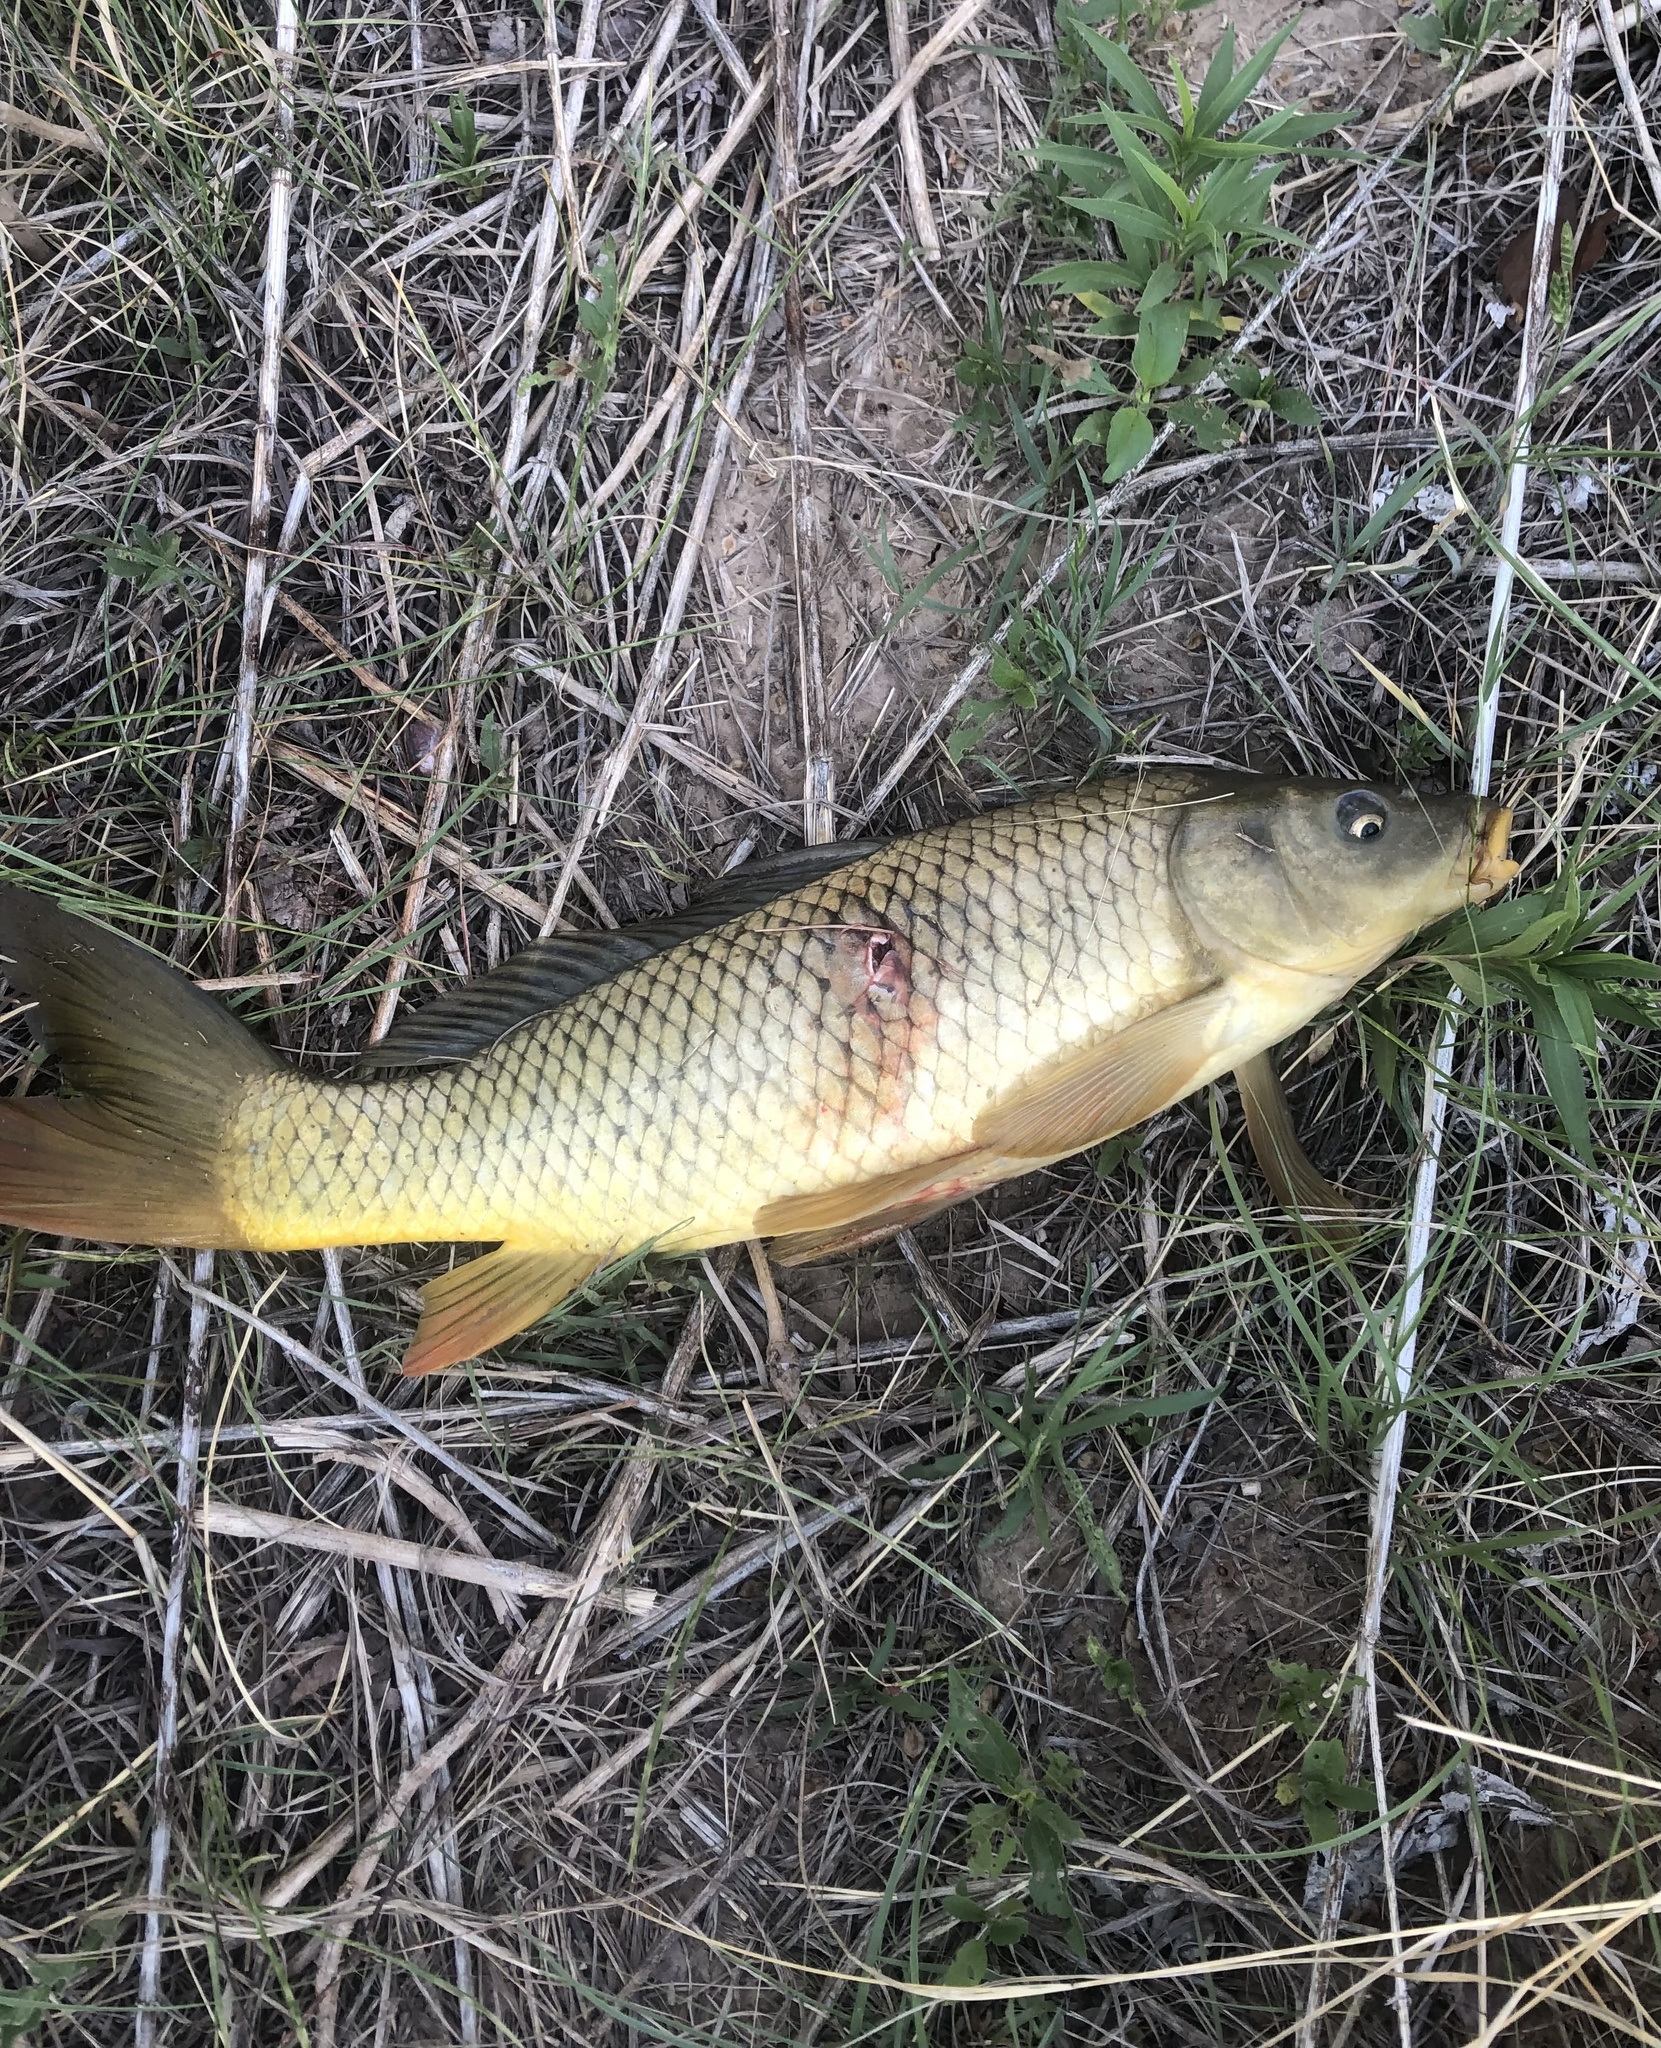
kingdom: Animalia
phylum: Chordata
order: Cypriniformes
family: Cyprinidae
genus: Cyprinus
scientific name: Cyprinus carpio
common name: Common carp
